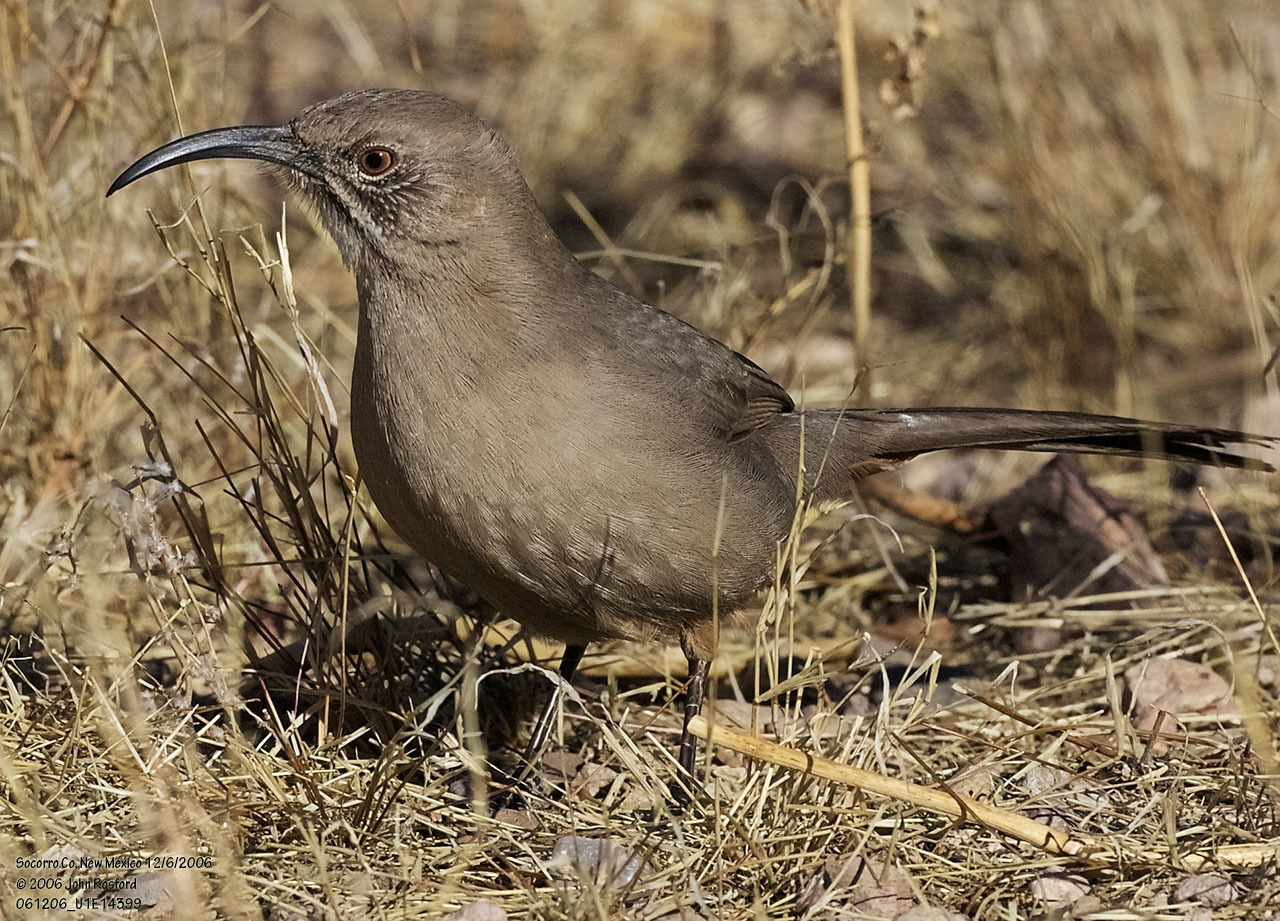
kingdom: Animalia
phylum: Chordata
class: Aves
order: Passeriformes
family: Mimidae
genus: Toxostoma
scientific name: Toxostoma crissale
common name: Crissal thrasher
